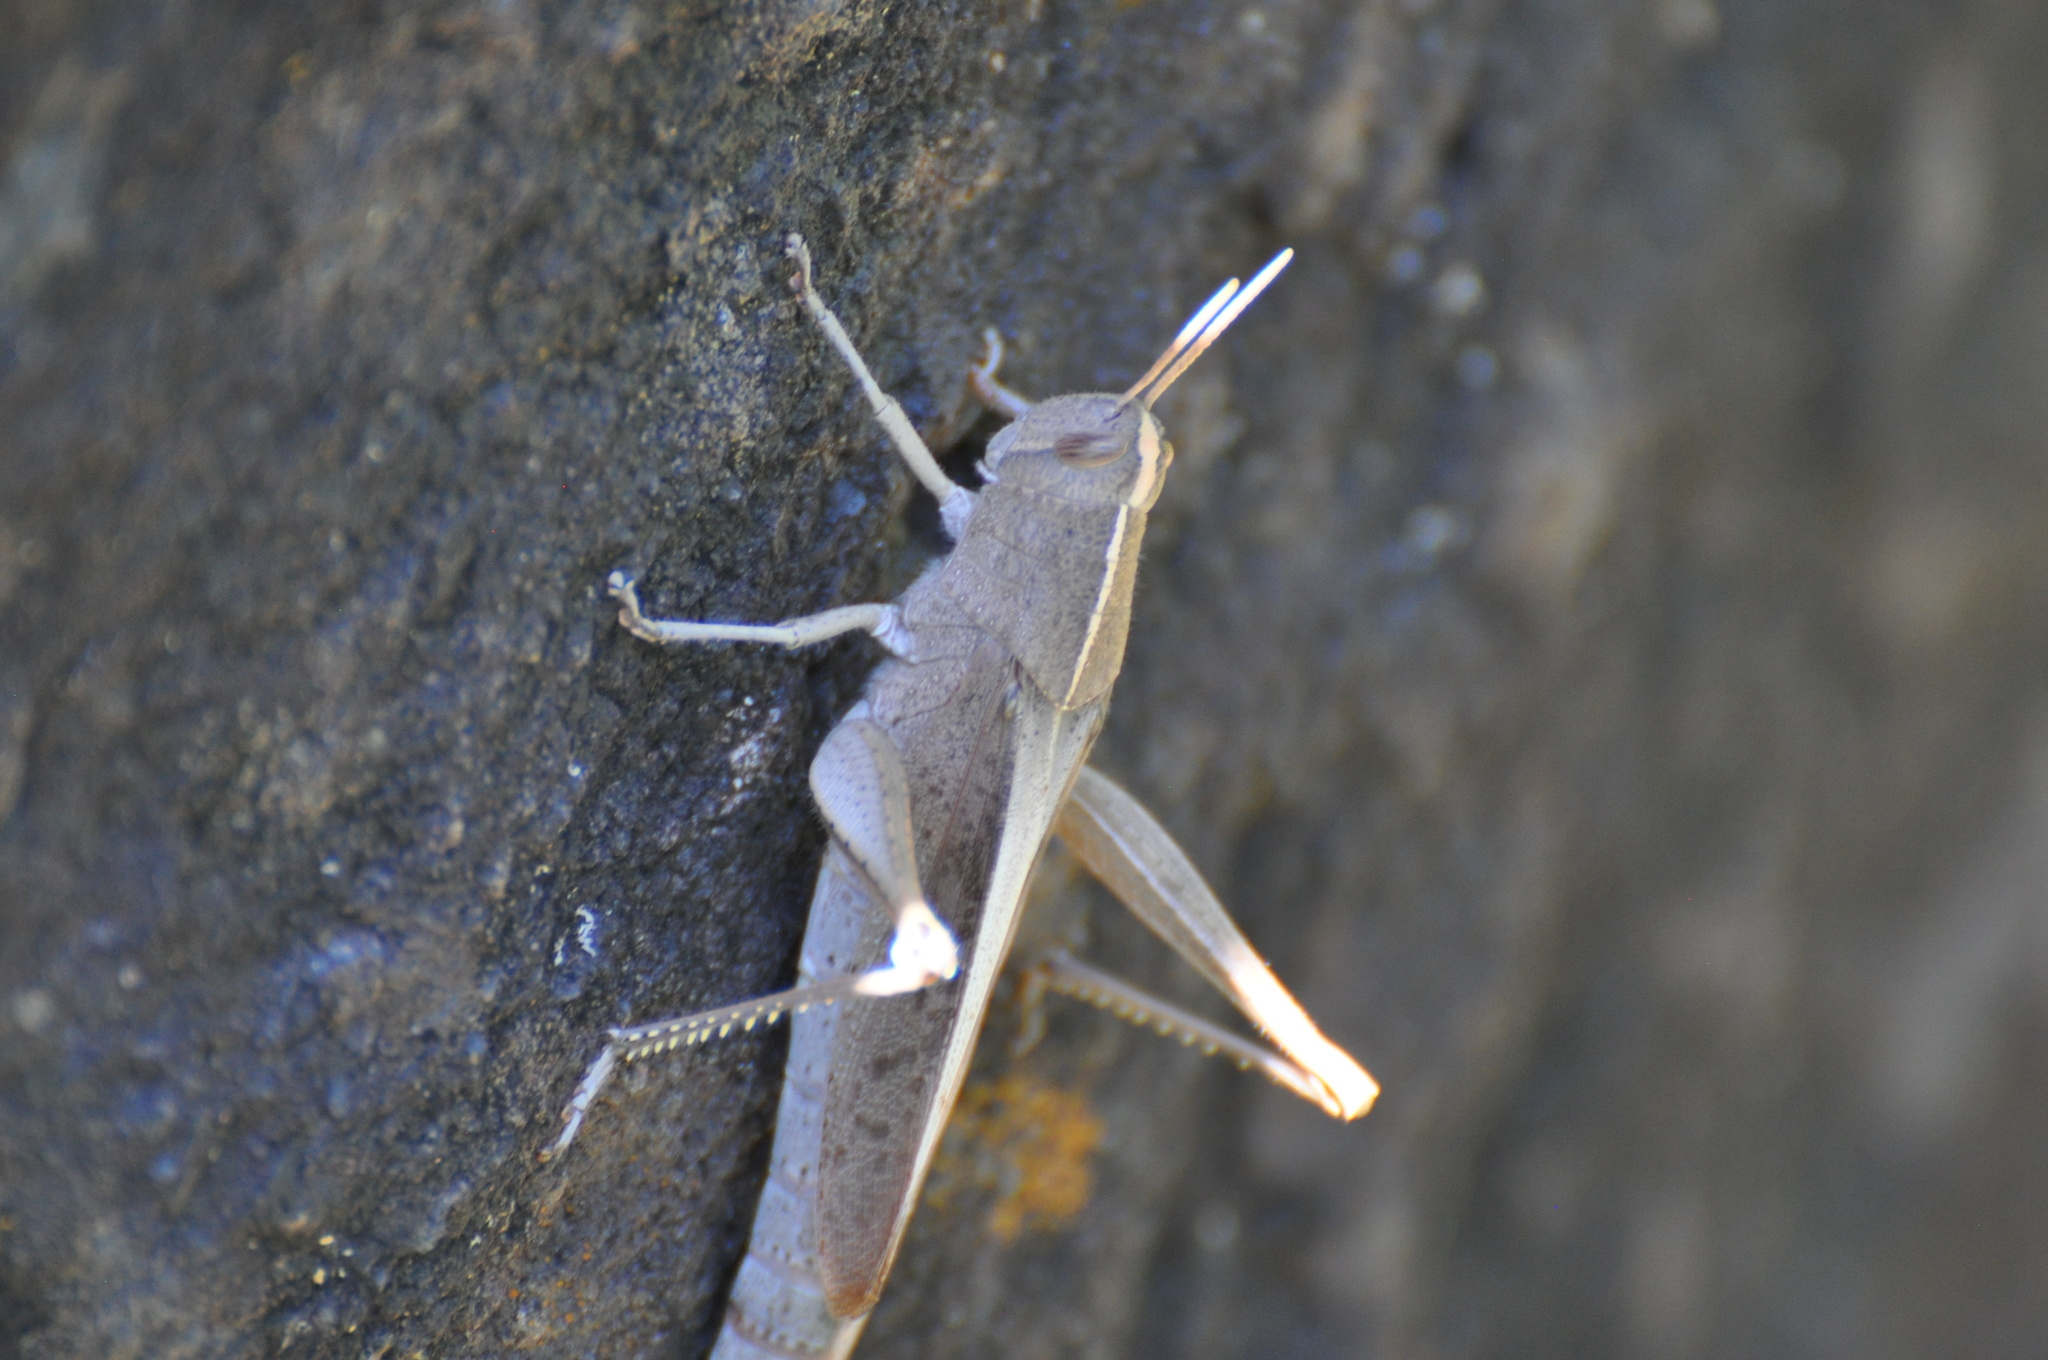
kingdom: Animalia
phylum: Arthropoda
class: Insecta
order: Orthoptera
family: Acrididae
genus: Schistocerca
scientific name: Schistocerca damnifica
